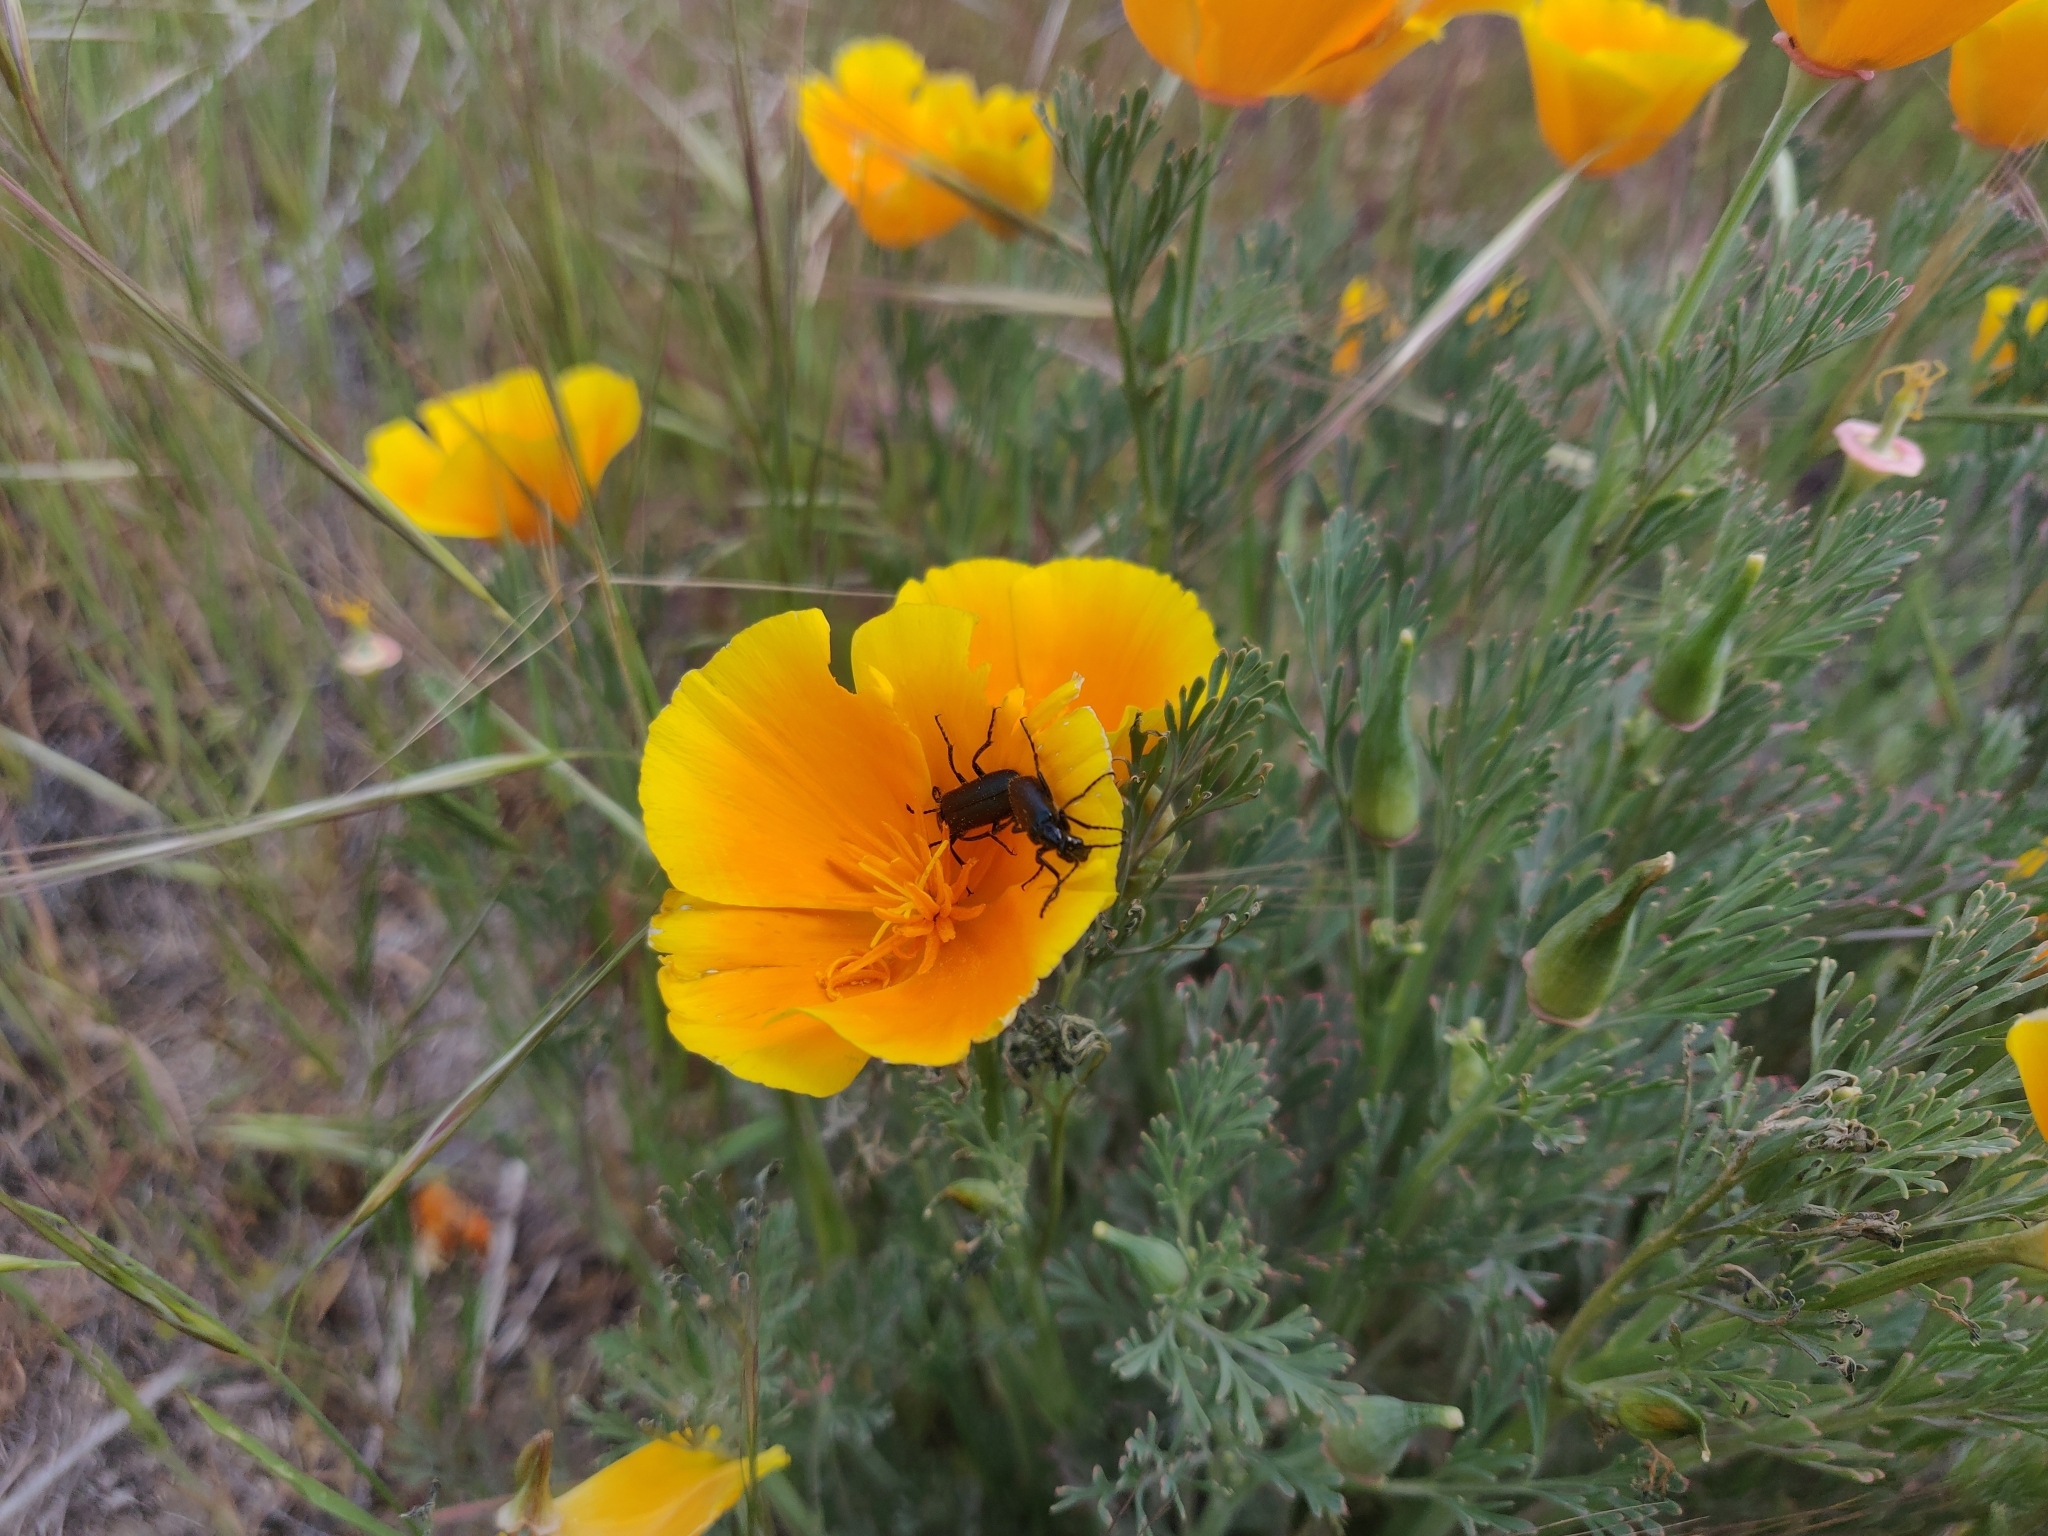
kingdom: Plantae
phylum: Tracheophyta
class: Magnoliopsida
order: Ranunculales
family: Papaveraceae
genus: Eschscholzia
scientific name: Eschscholzia californica
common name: California poppy
